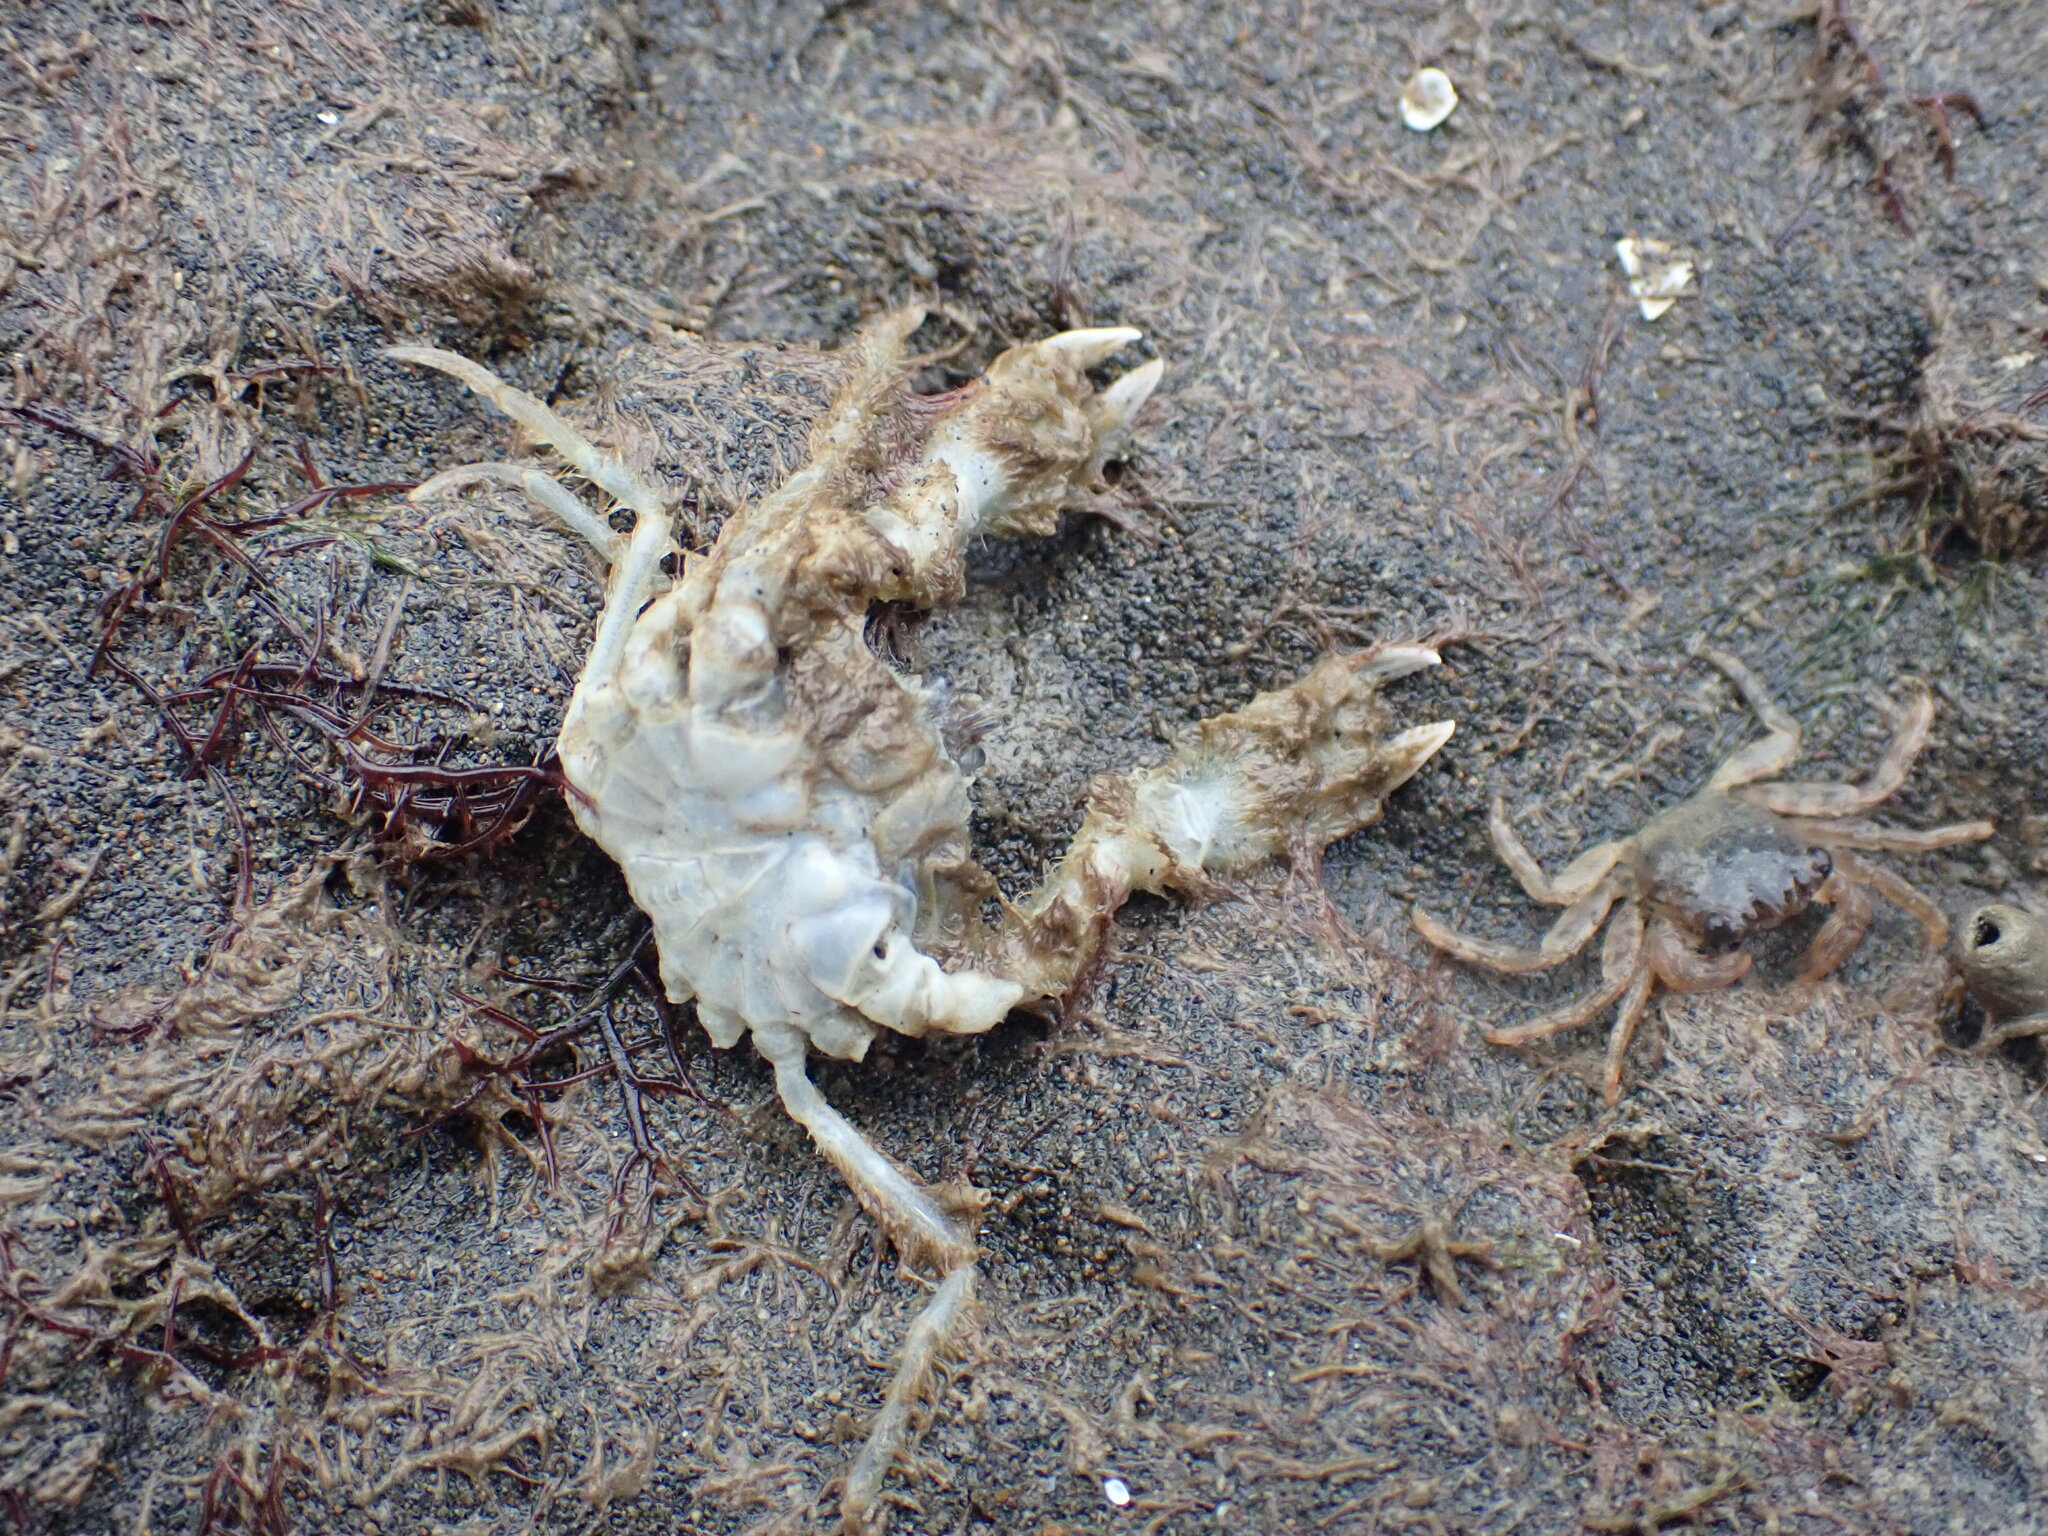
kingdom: Animalia
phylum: Arthropoda
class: Malacostraca
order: Decapoda
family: Hymenosomatidae
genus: Halicarcinus
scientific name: Halicarcinus whitei
